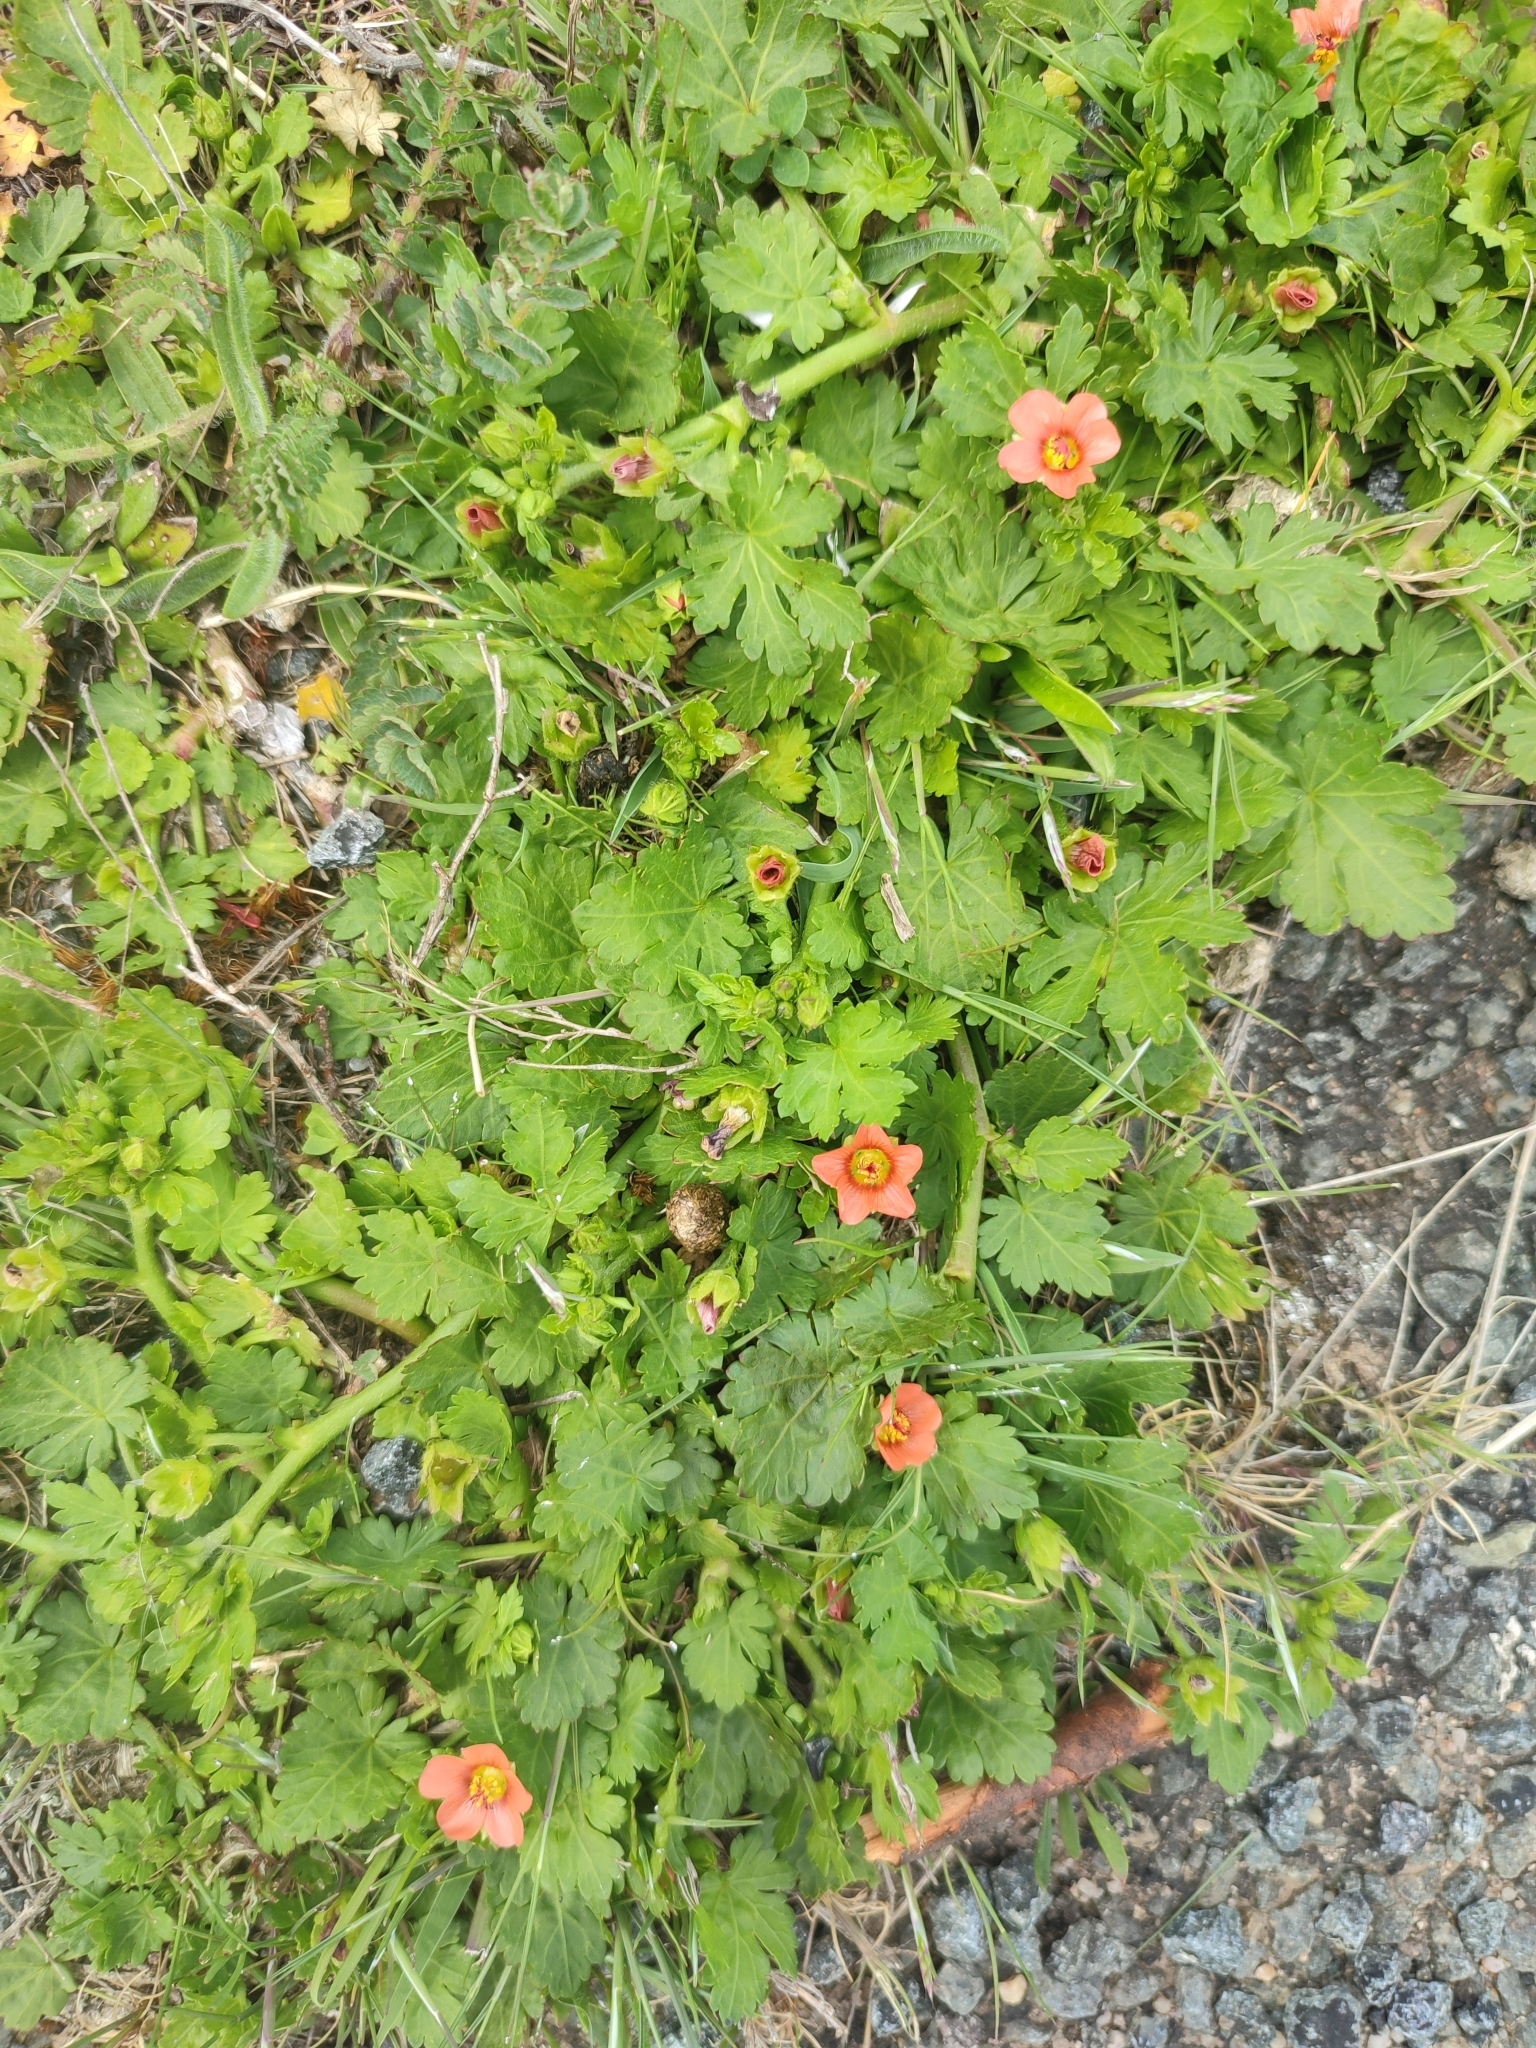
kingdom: Plantae
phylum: Tracheophyta
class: Magnoliopsida
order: Malvales
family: Malvaceae
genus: Modiola
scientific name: Modiola caroliniana
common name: Carolina bristlemallow
